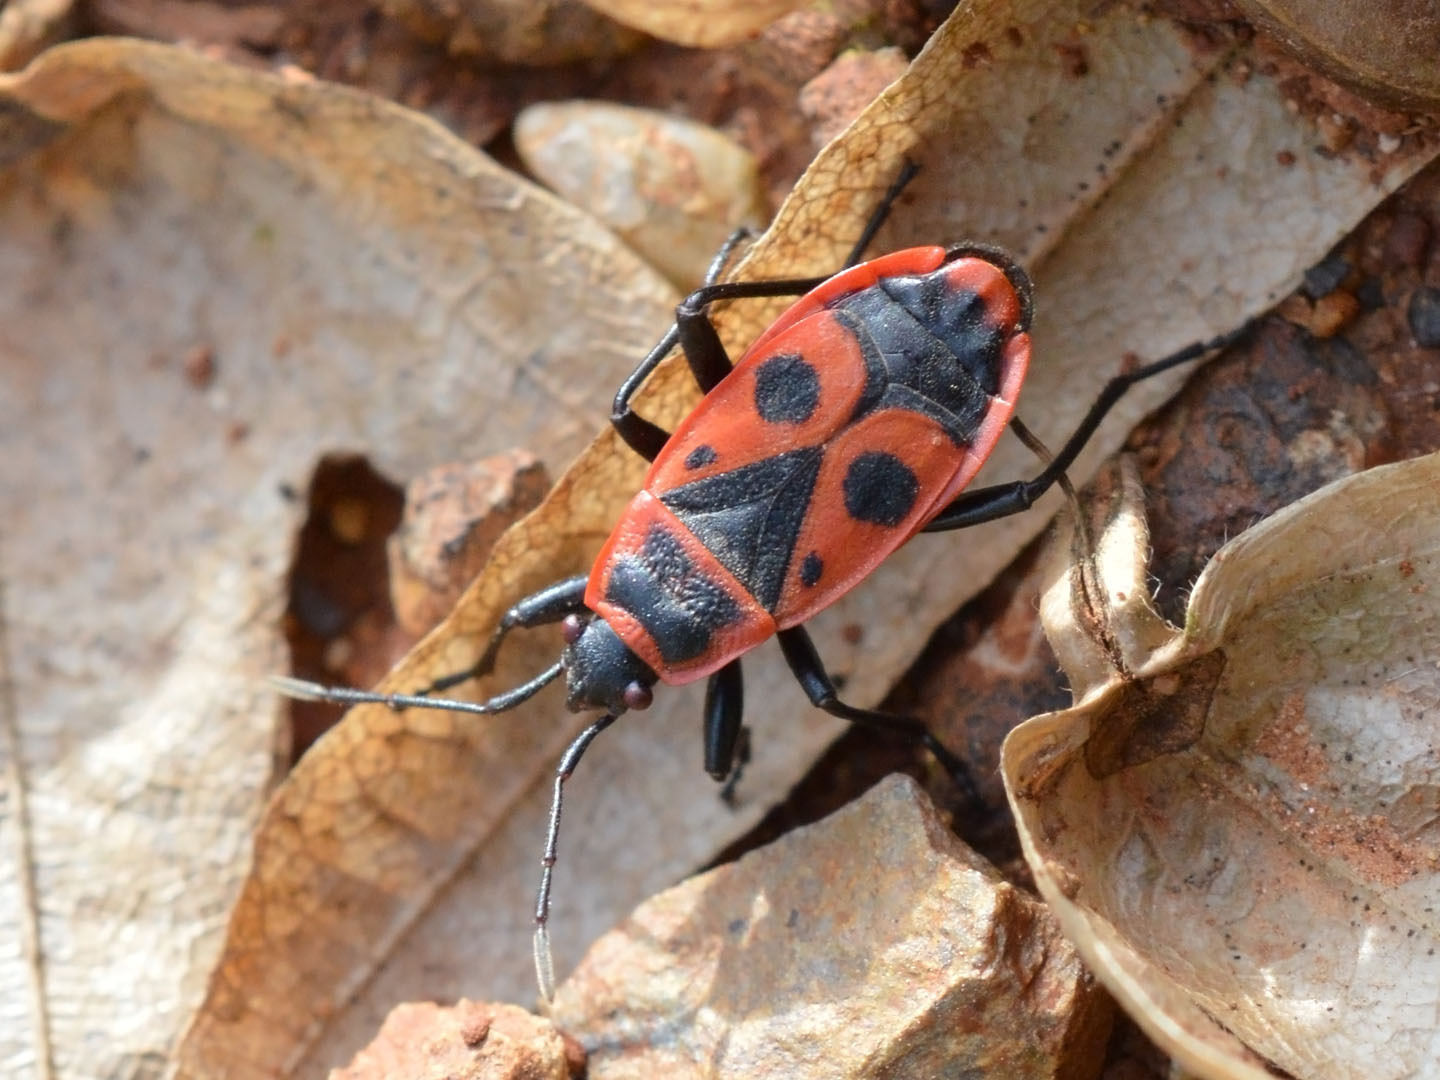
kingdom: Animalia
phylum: Arthropoda
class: Insecta
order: Hemiptera
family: Pyrrhocoridae
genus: Pyrrhocoris
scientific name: Pyrrhocoris apterus
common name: Firebug
